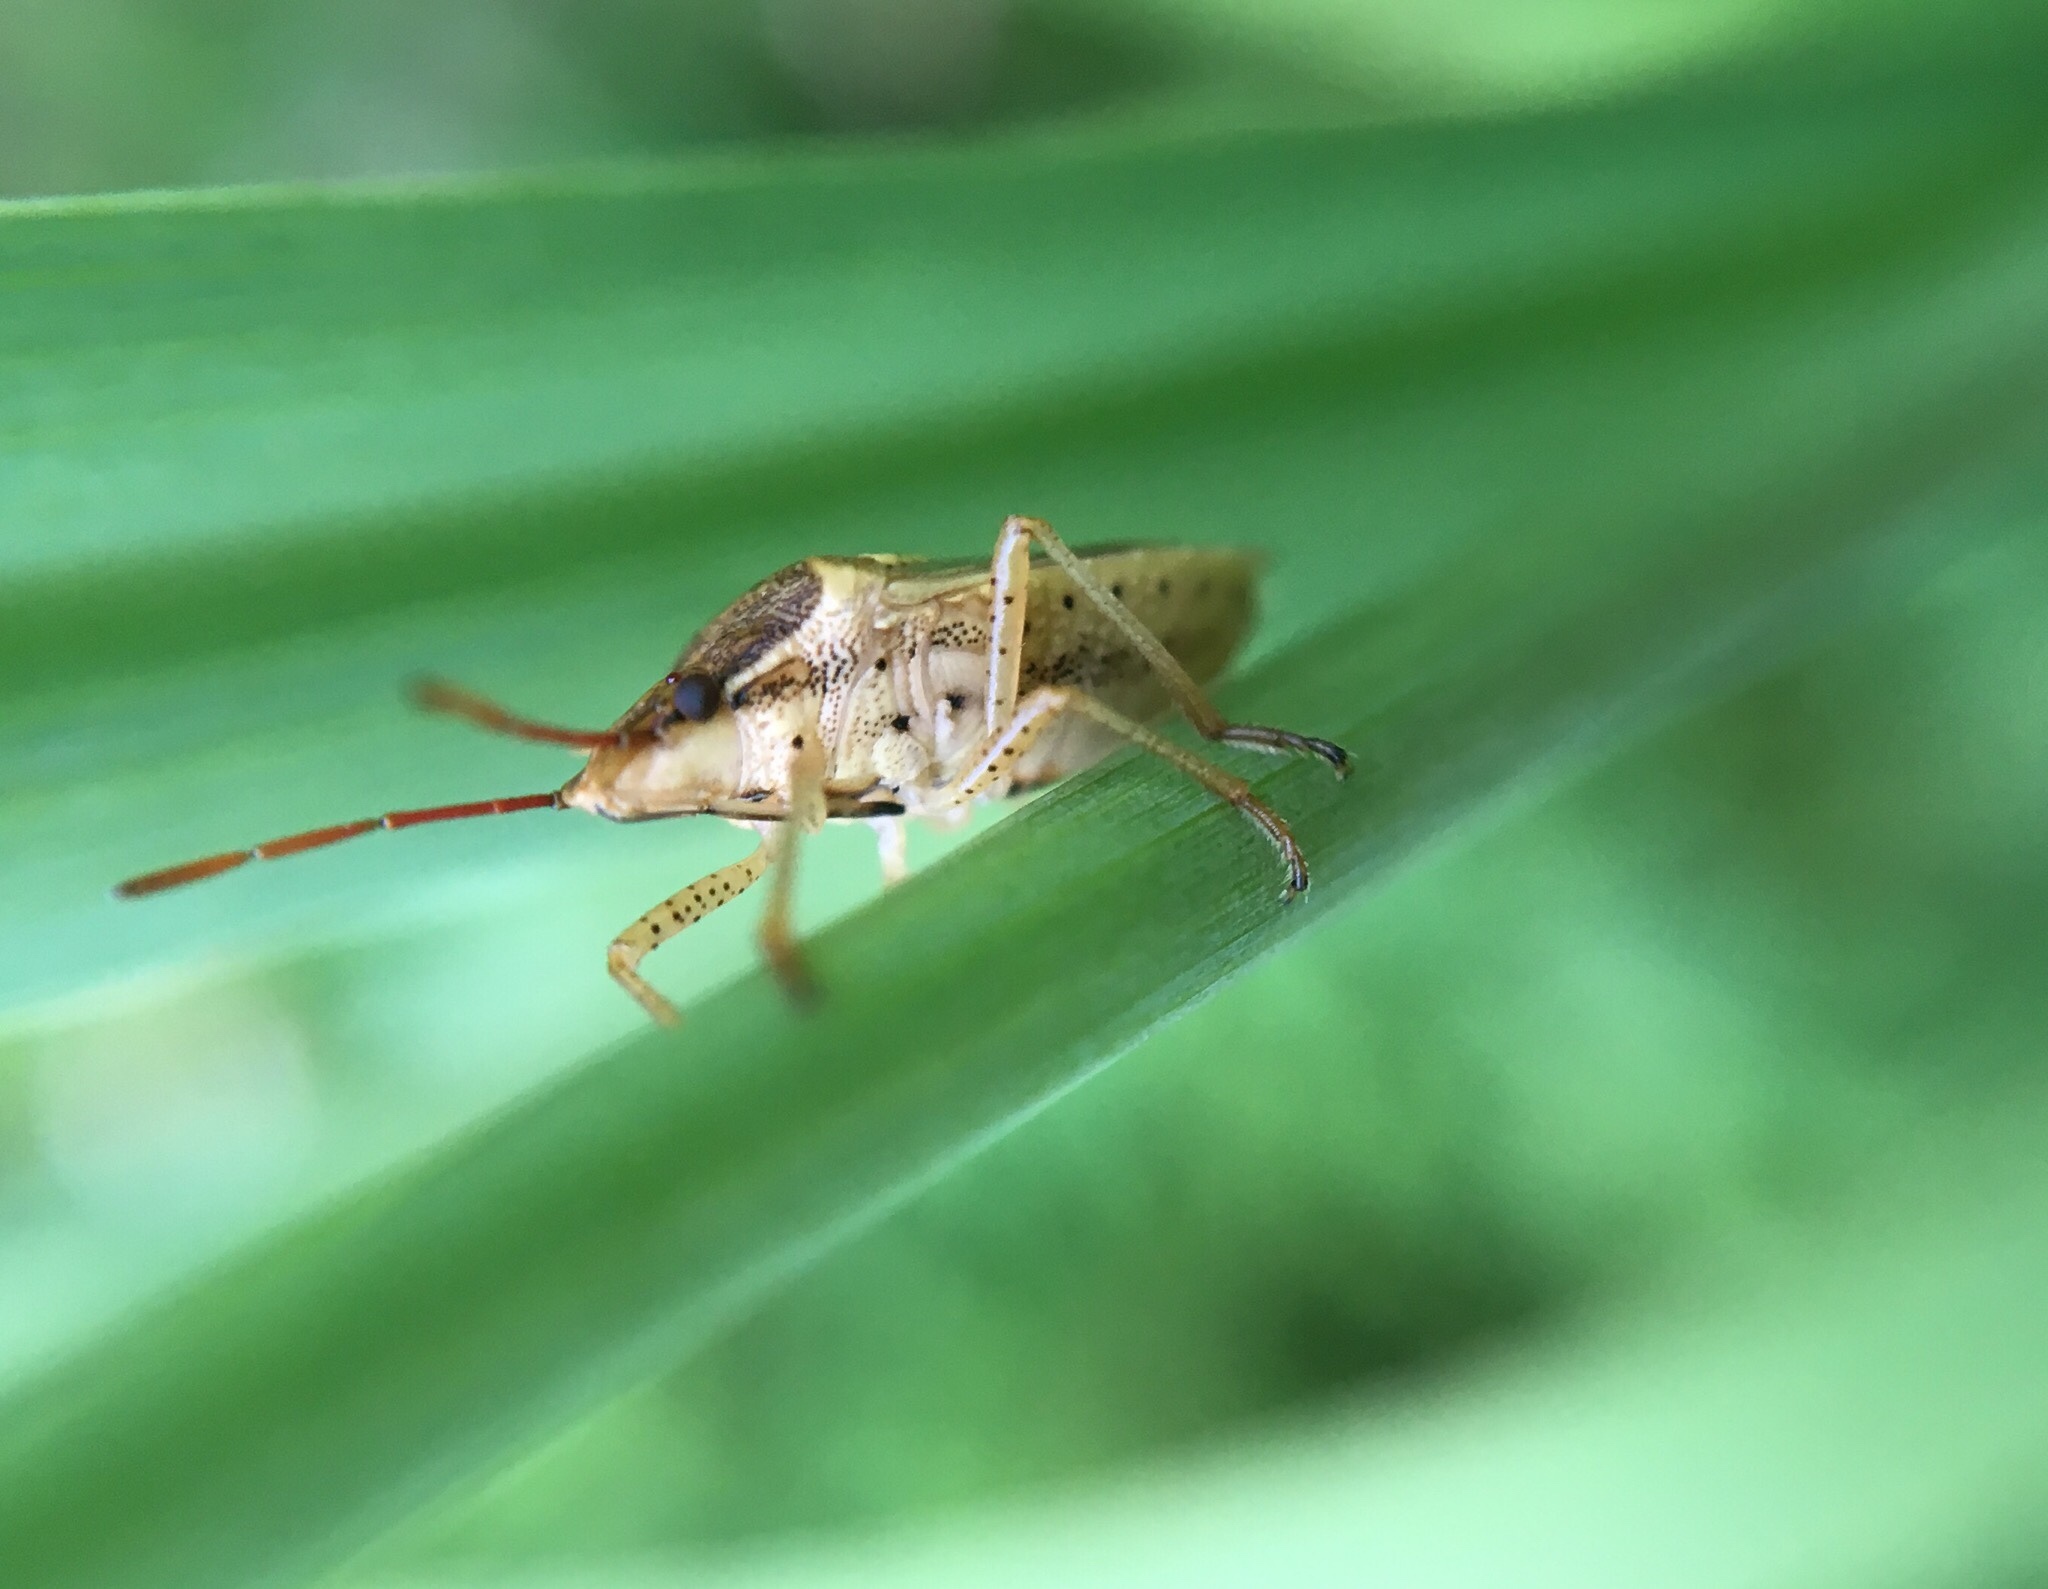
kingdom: Animalia
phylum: Arthropoda
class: Insecta
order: Hemiptera
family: Pentatomidae
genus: Oebalus
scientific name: Oebalus pugnax
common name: Rice stink bug
